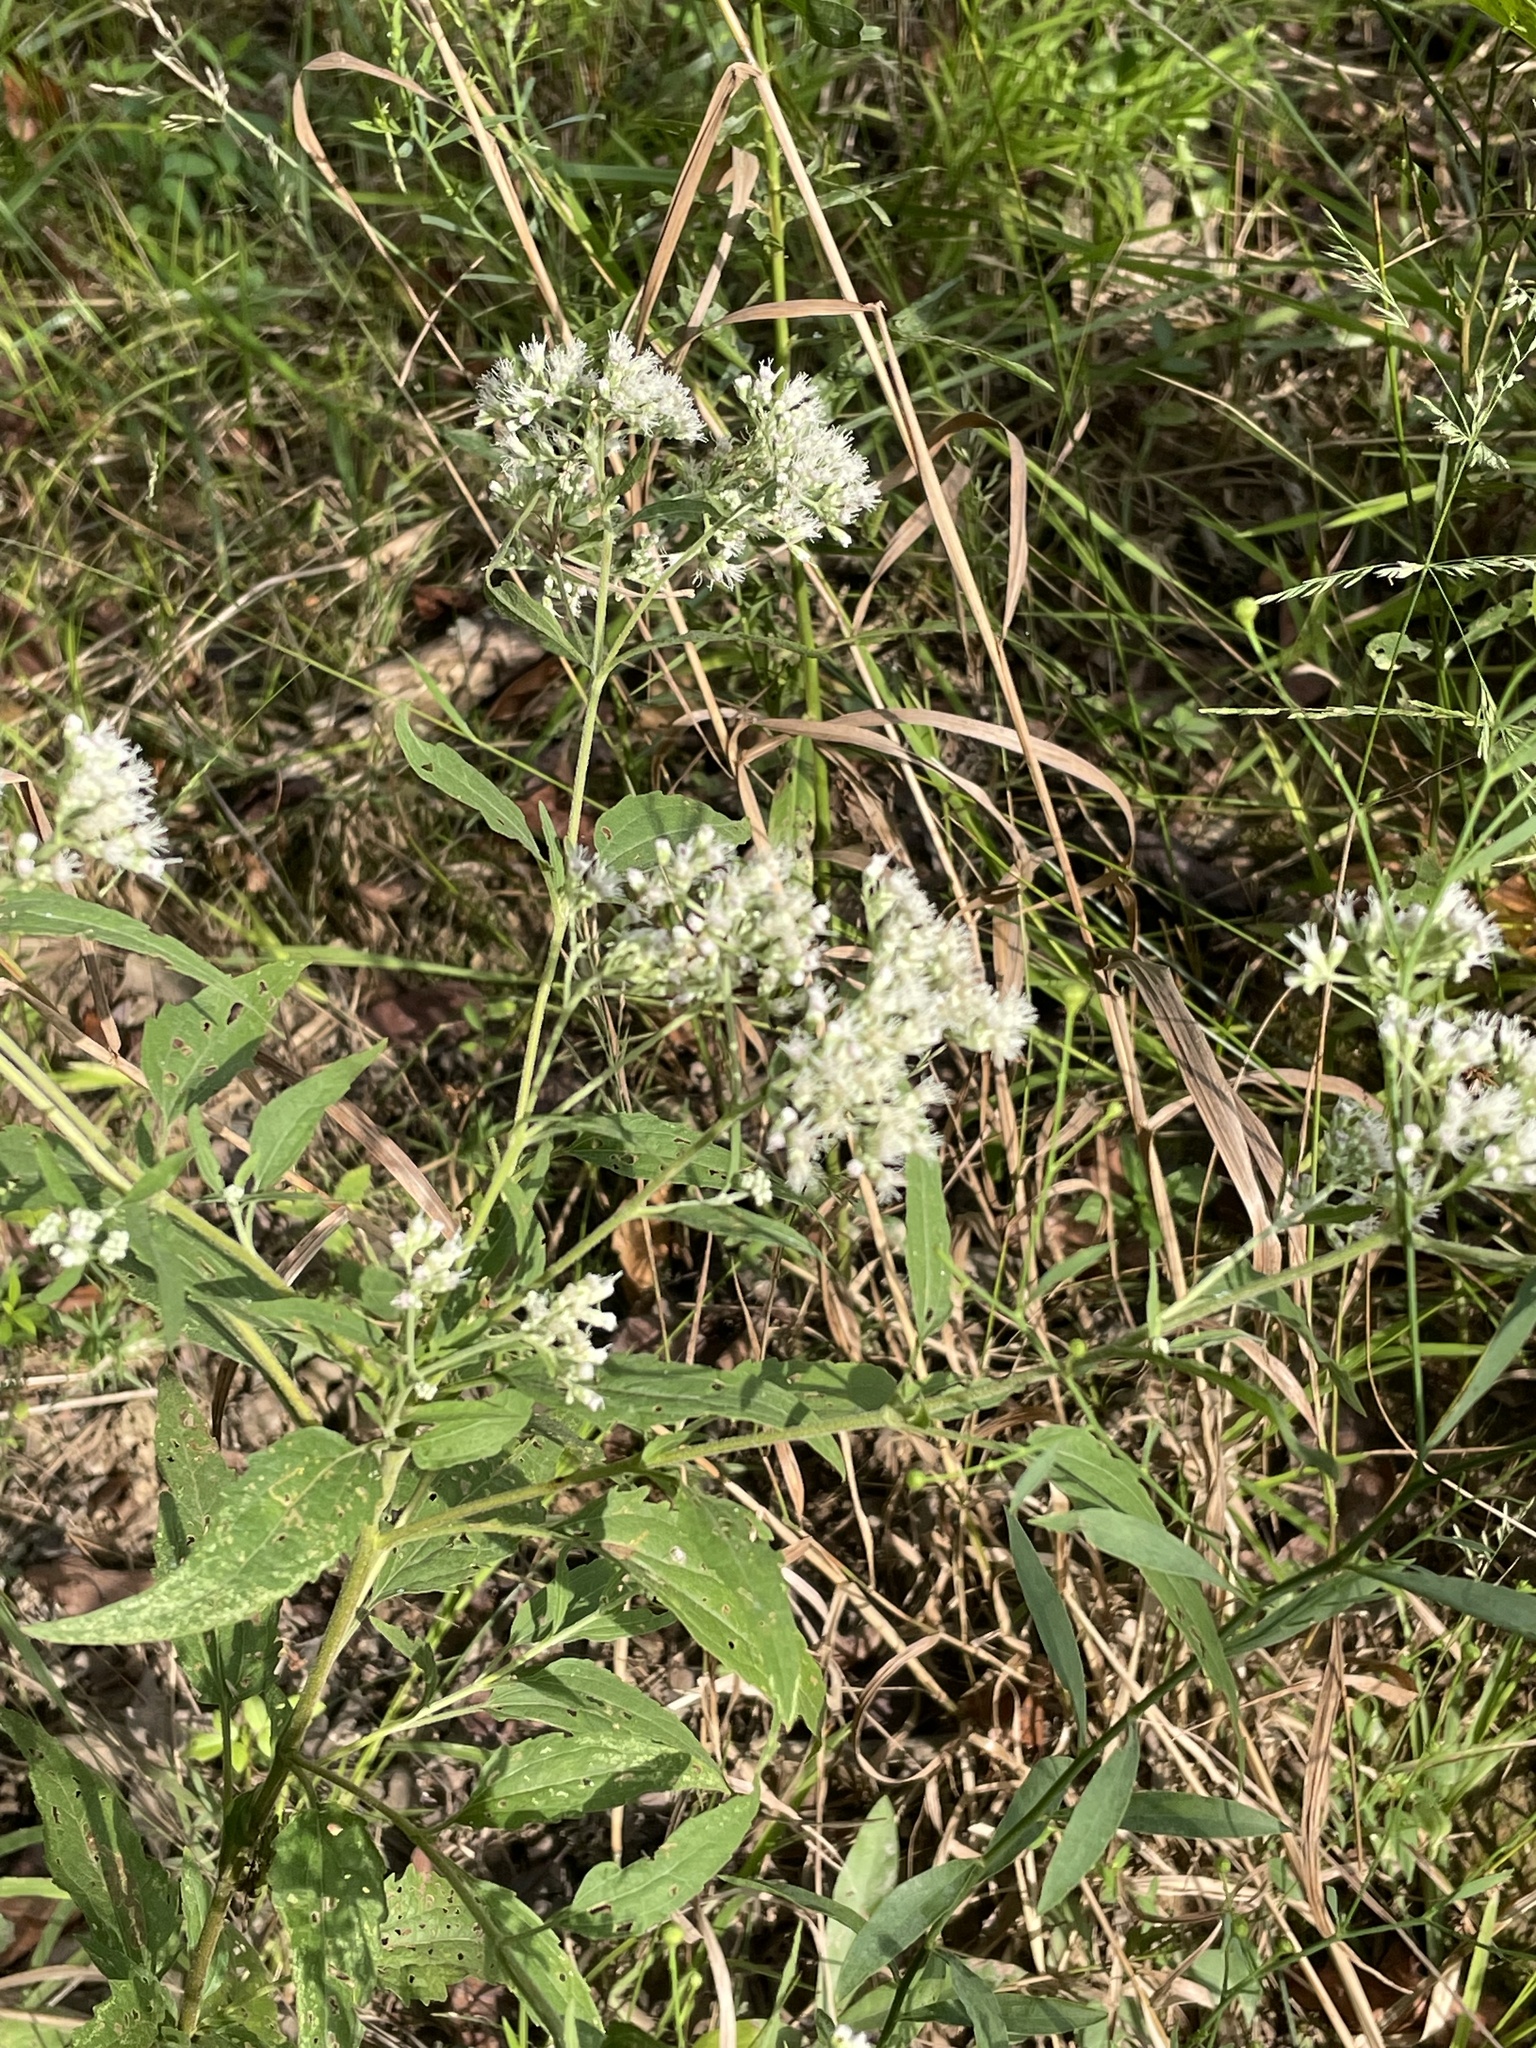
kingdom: Plantae
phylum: Tracheophyta
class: Magnoliopsida
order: Asterales
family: Asteraceae
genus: Eupatorium
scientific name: Eupatorium serotinum
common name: Late boneset
